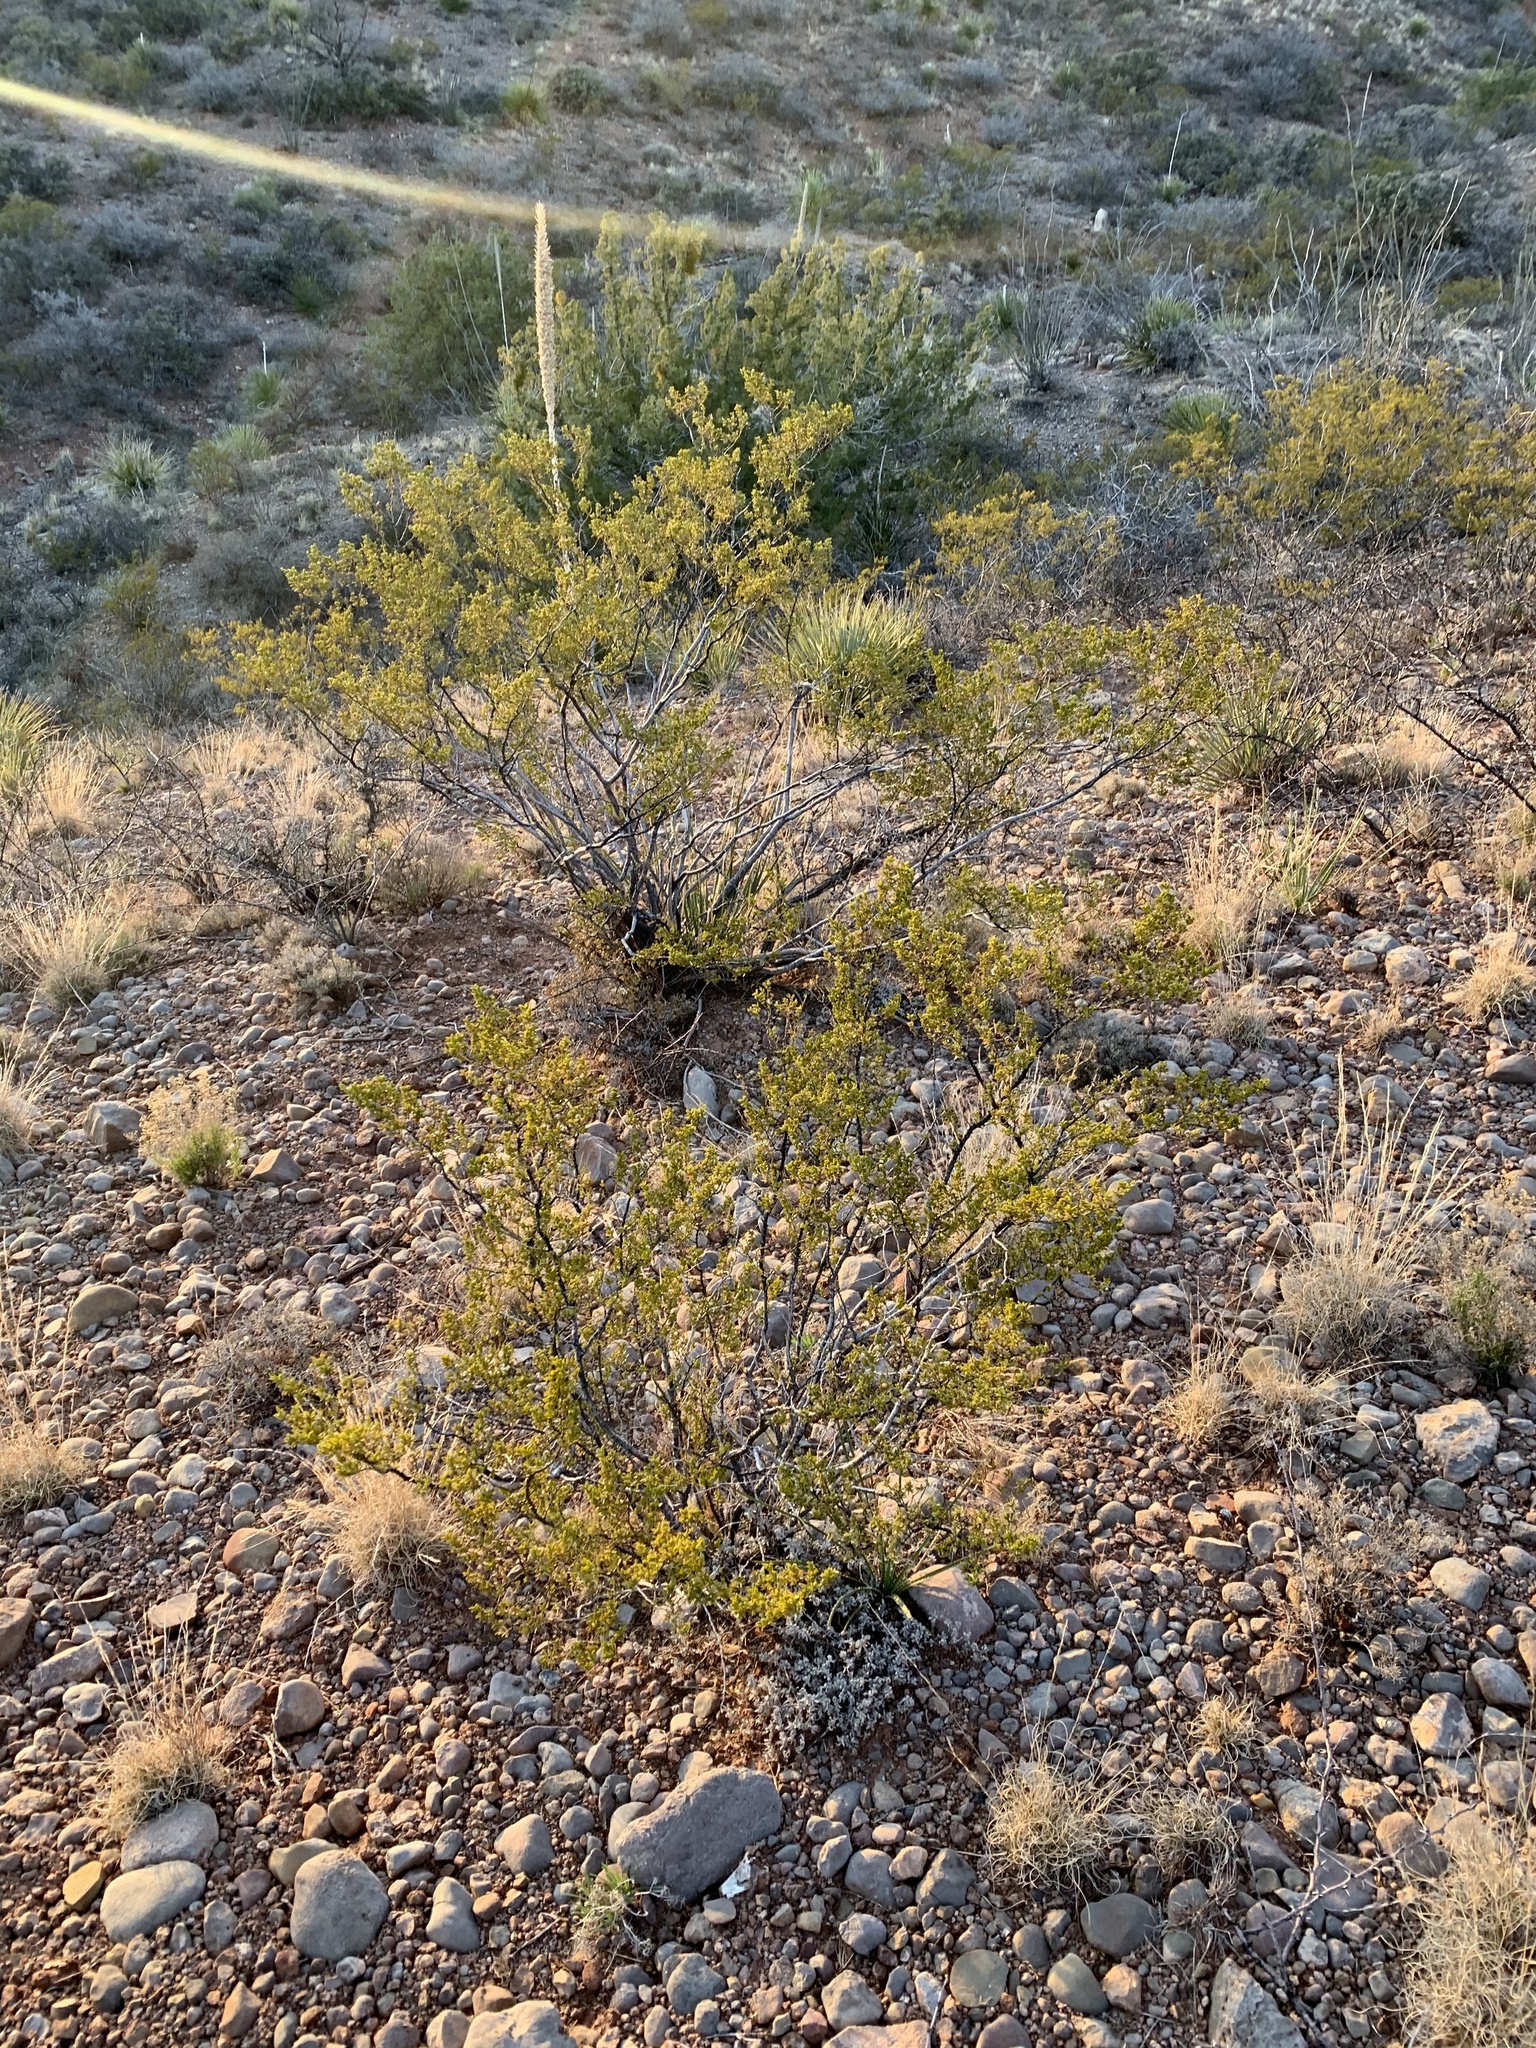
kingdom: Plantae
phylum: Tracheophyta
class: Magnoliopsida
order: Zygophyllales
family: Zygophyllaceae
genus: Larrea
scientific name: Larrea tridentata
